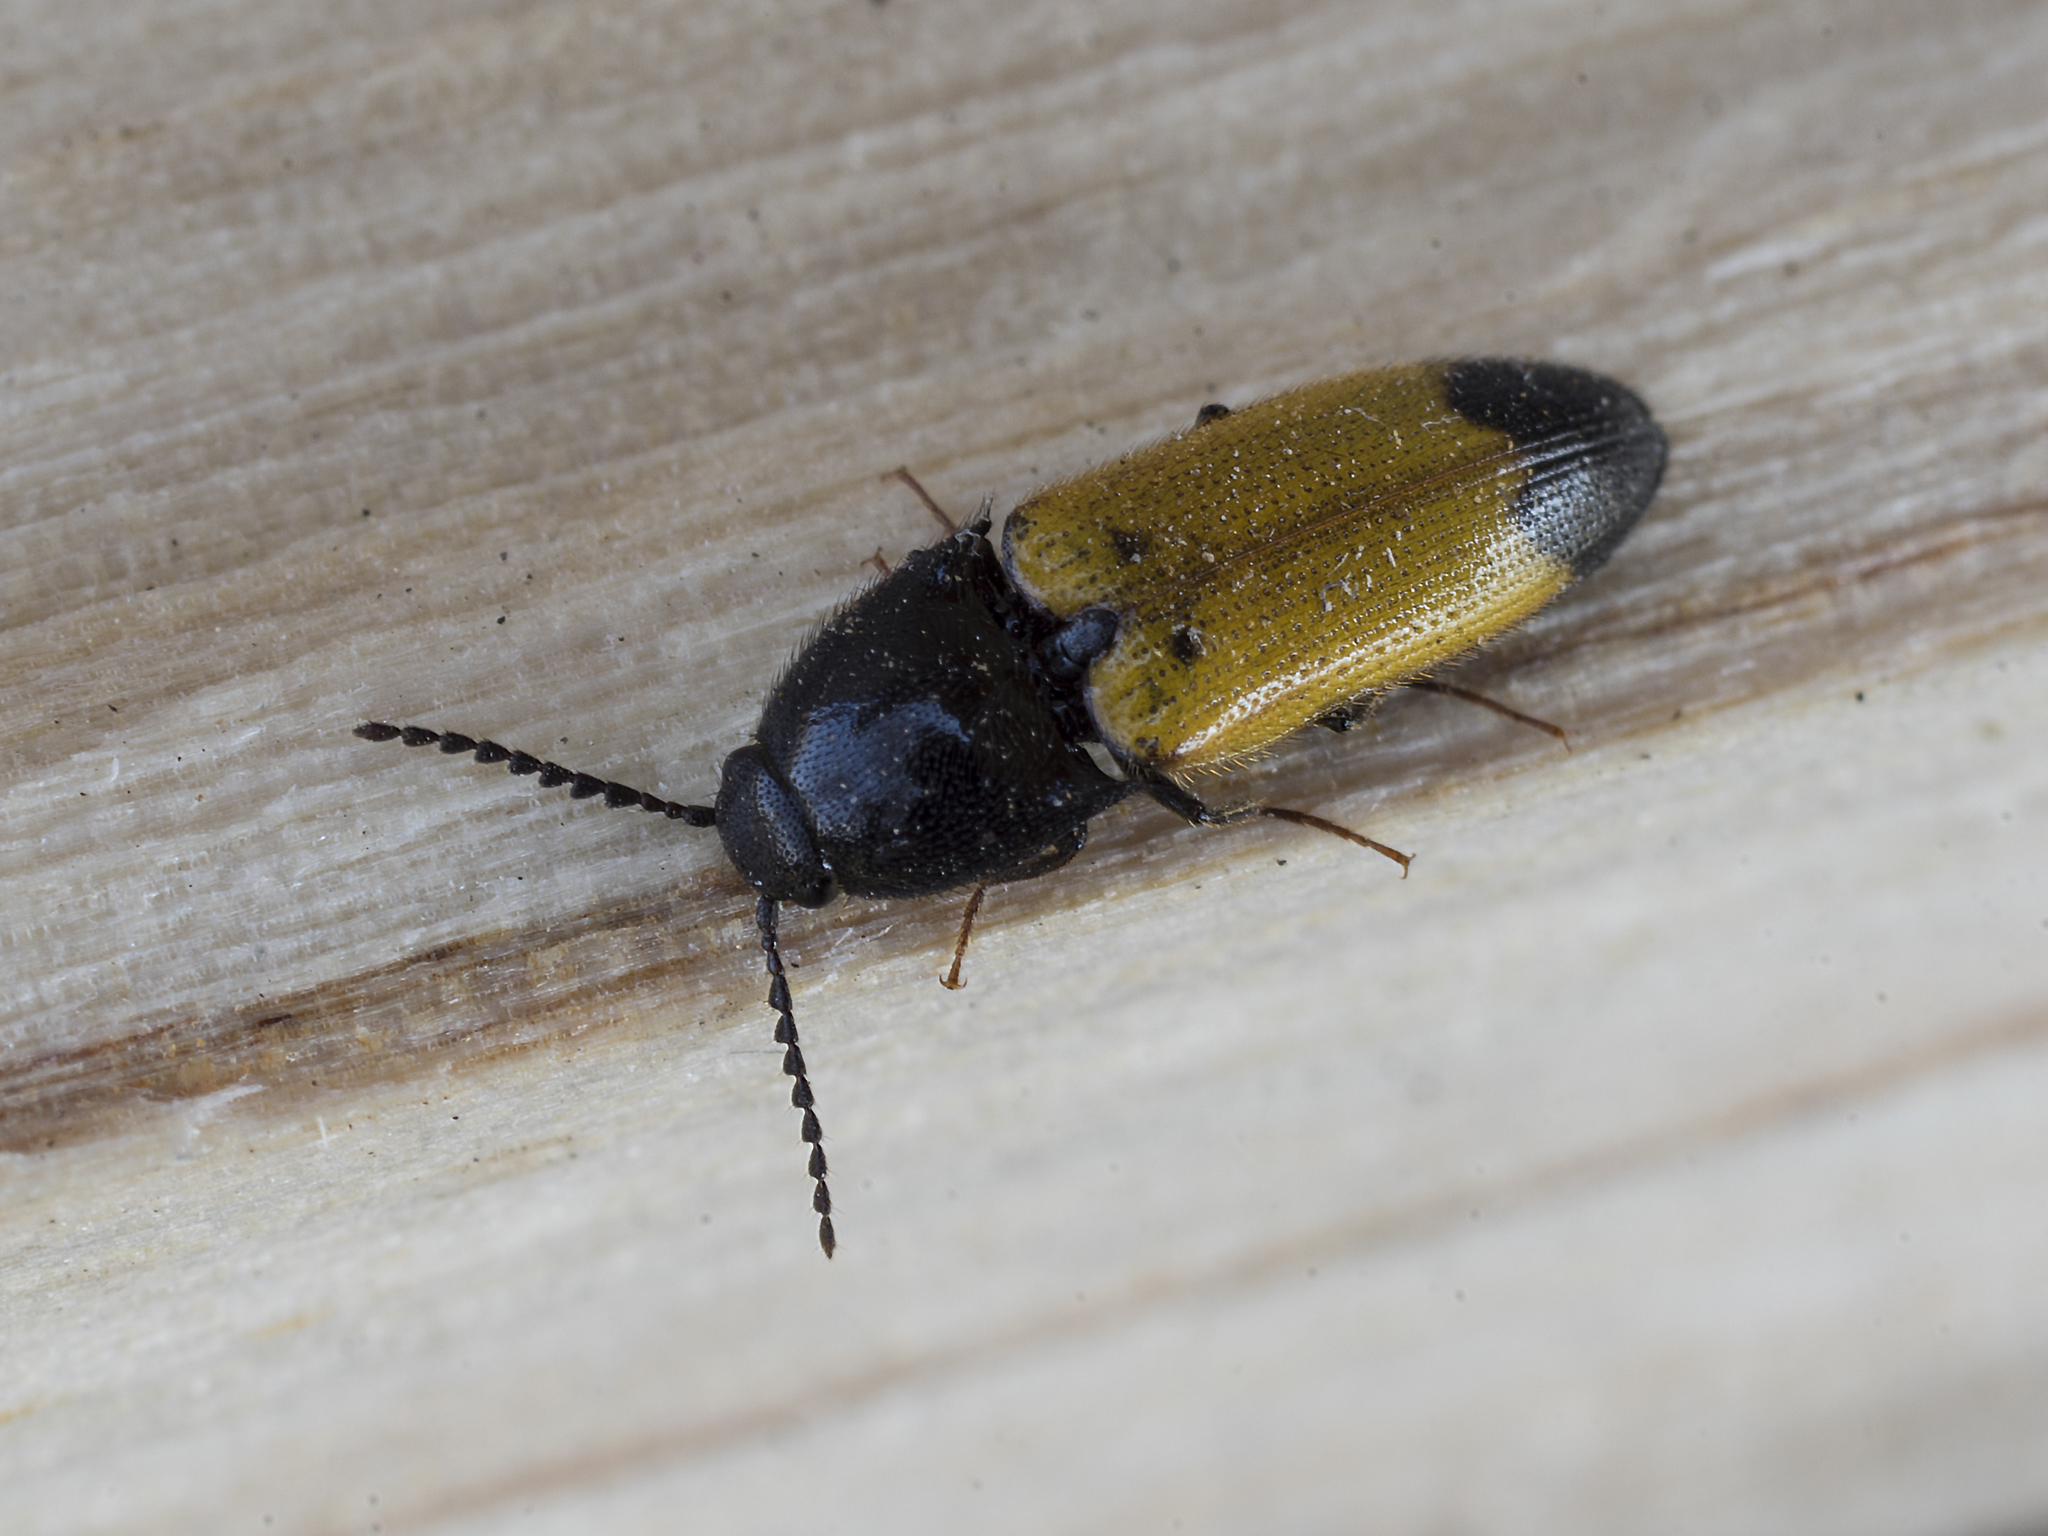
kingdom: Animalia
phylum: Arthropoda
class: Insecta
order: Coleoptera
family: Elateridae
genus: Ampedus
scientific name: Ampedus elegantulus
